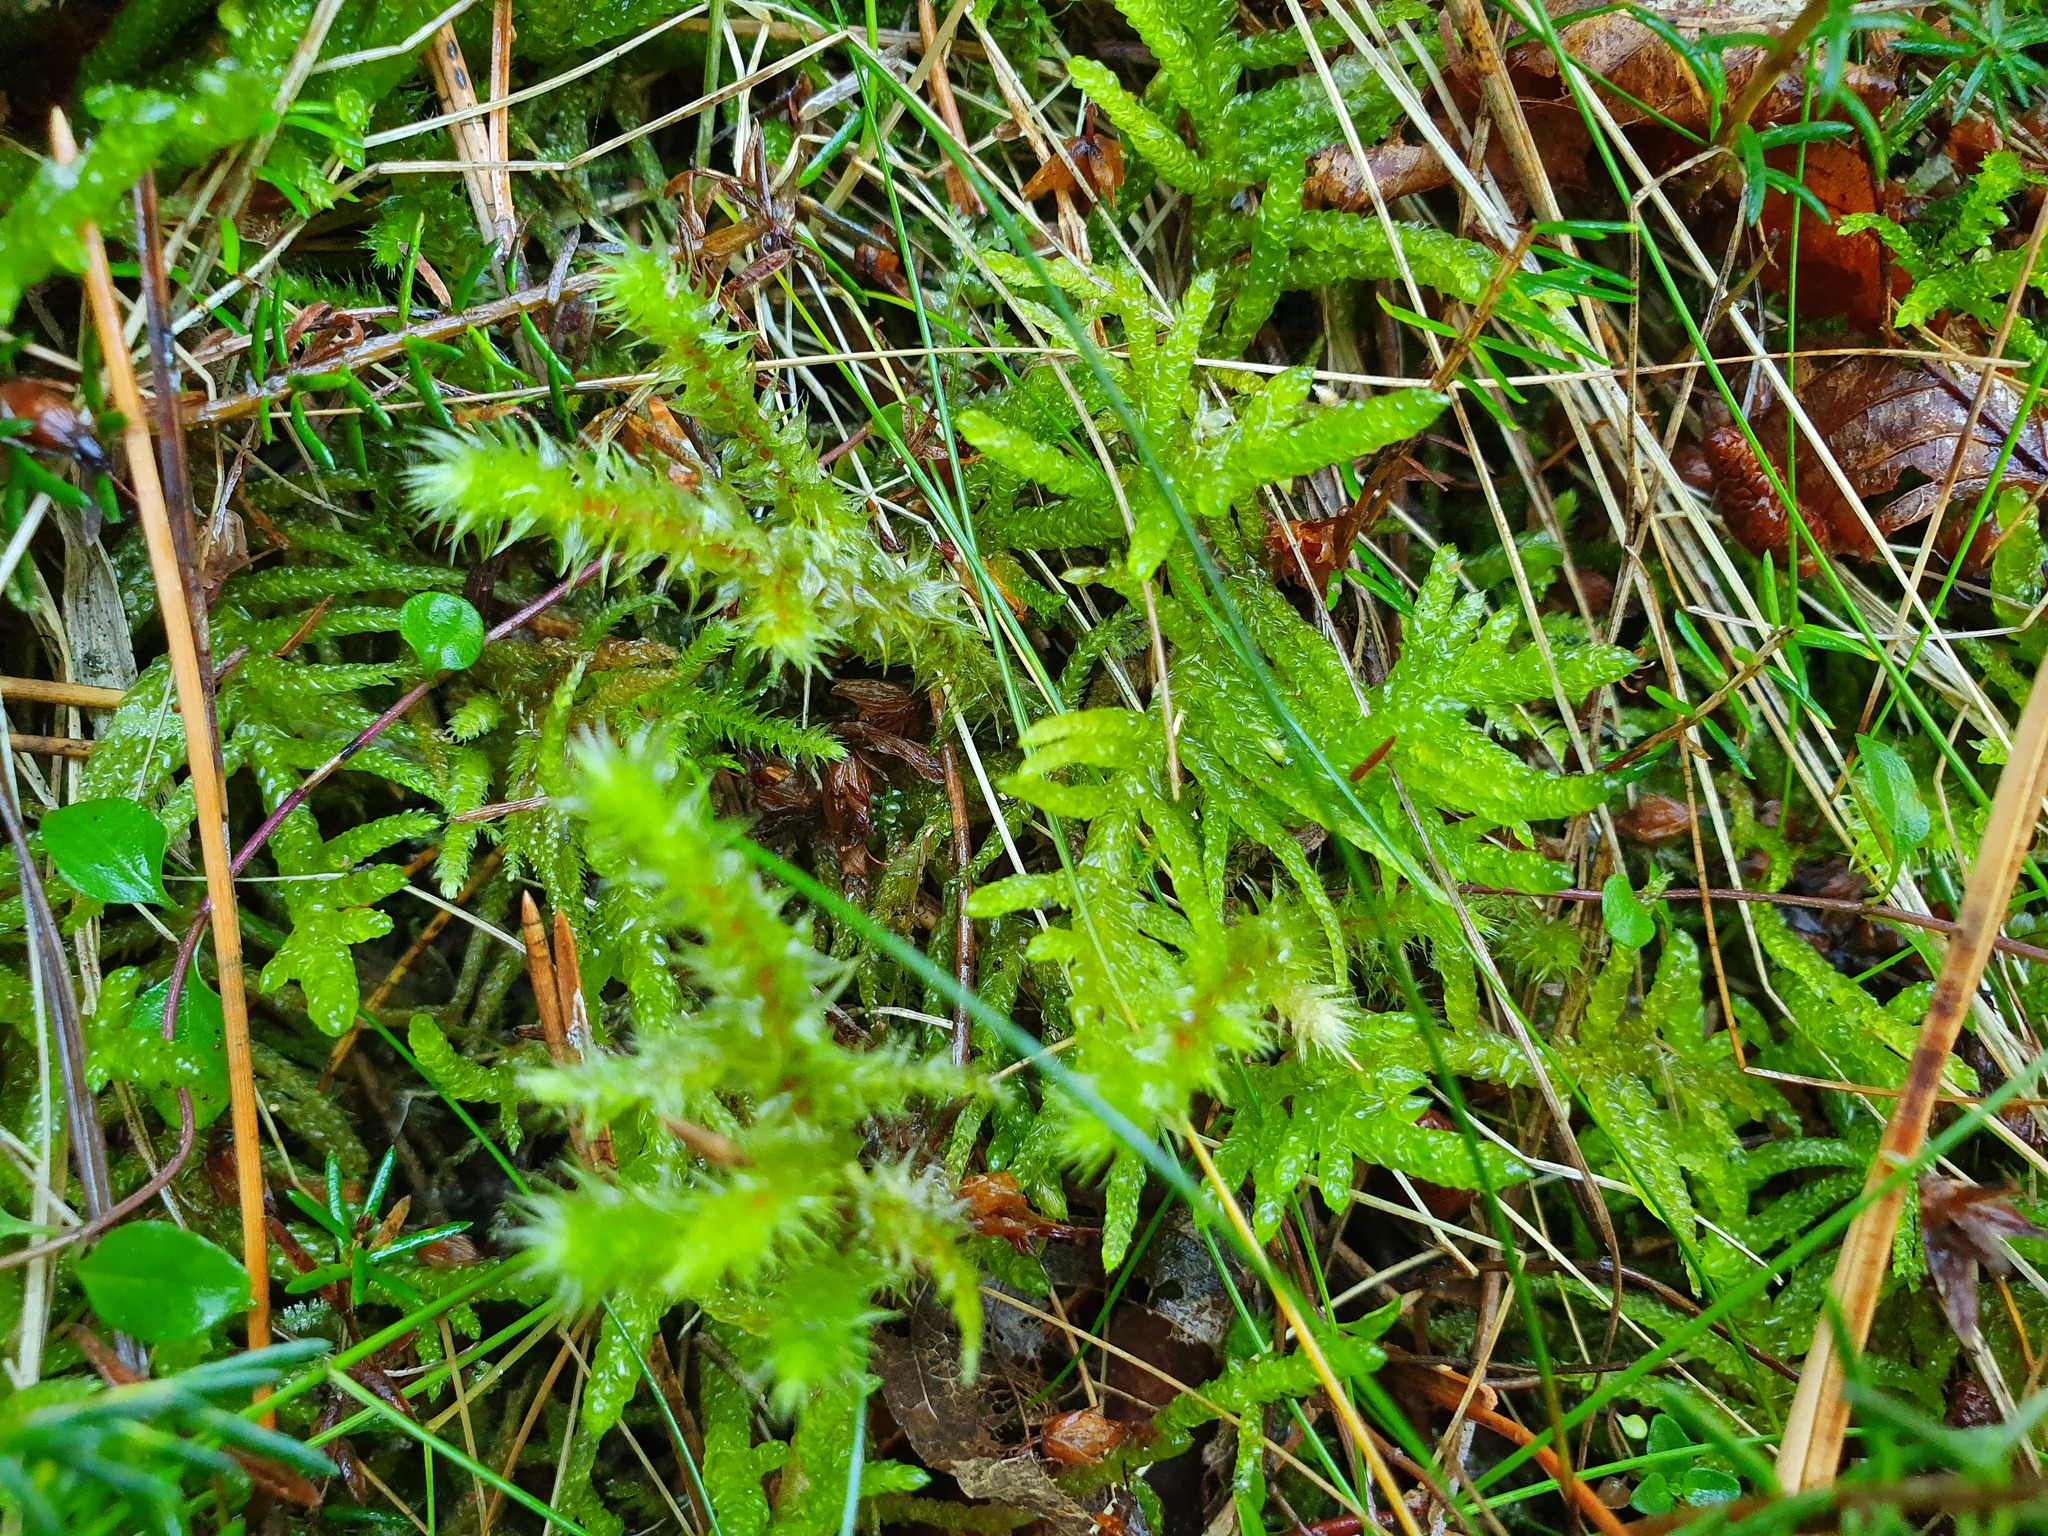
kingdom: Plantae
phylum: Bryophyta
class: Bryopsida
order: Hypnales
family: Hylocomiaceae
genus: Hylocomiadelphus
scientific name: Hylocomiadelphus triquetrus
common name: Rough goose neck moss
